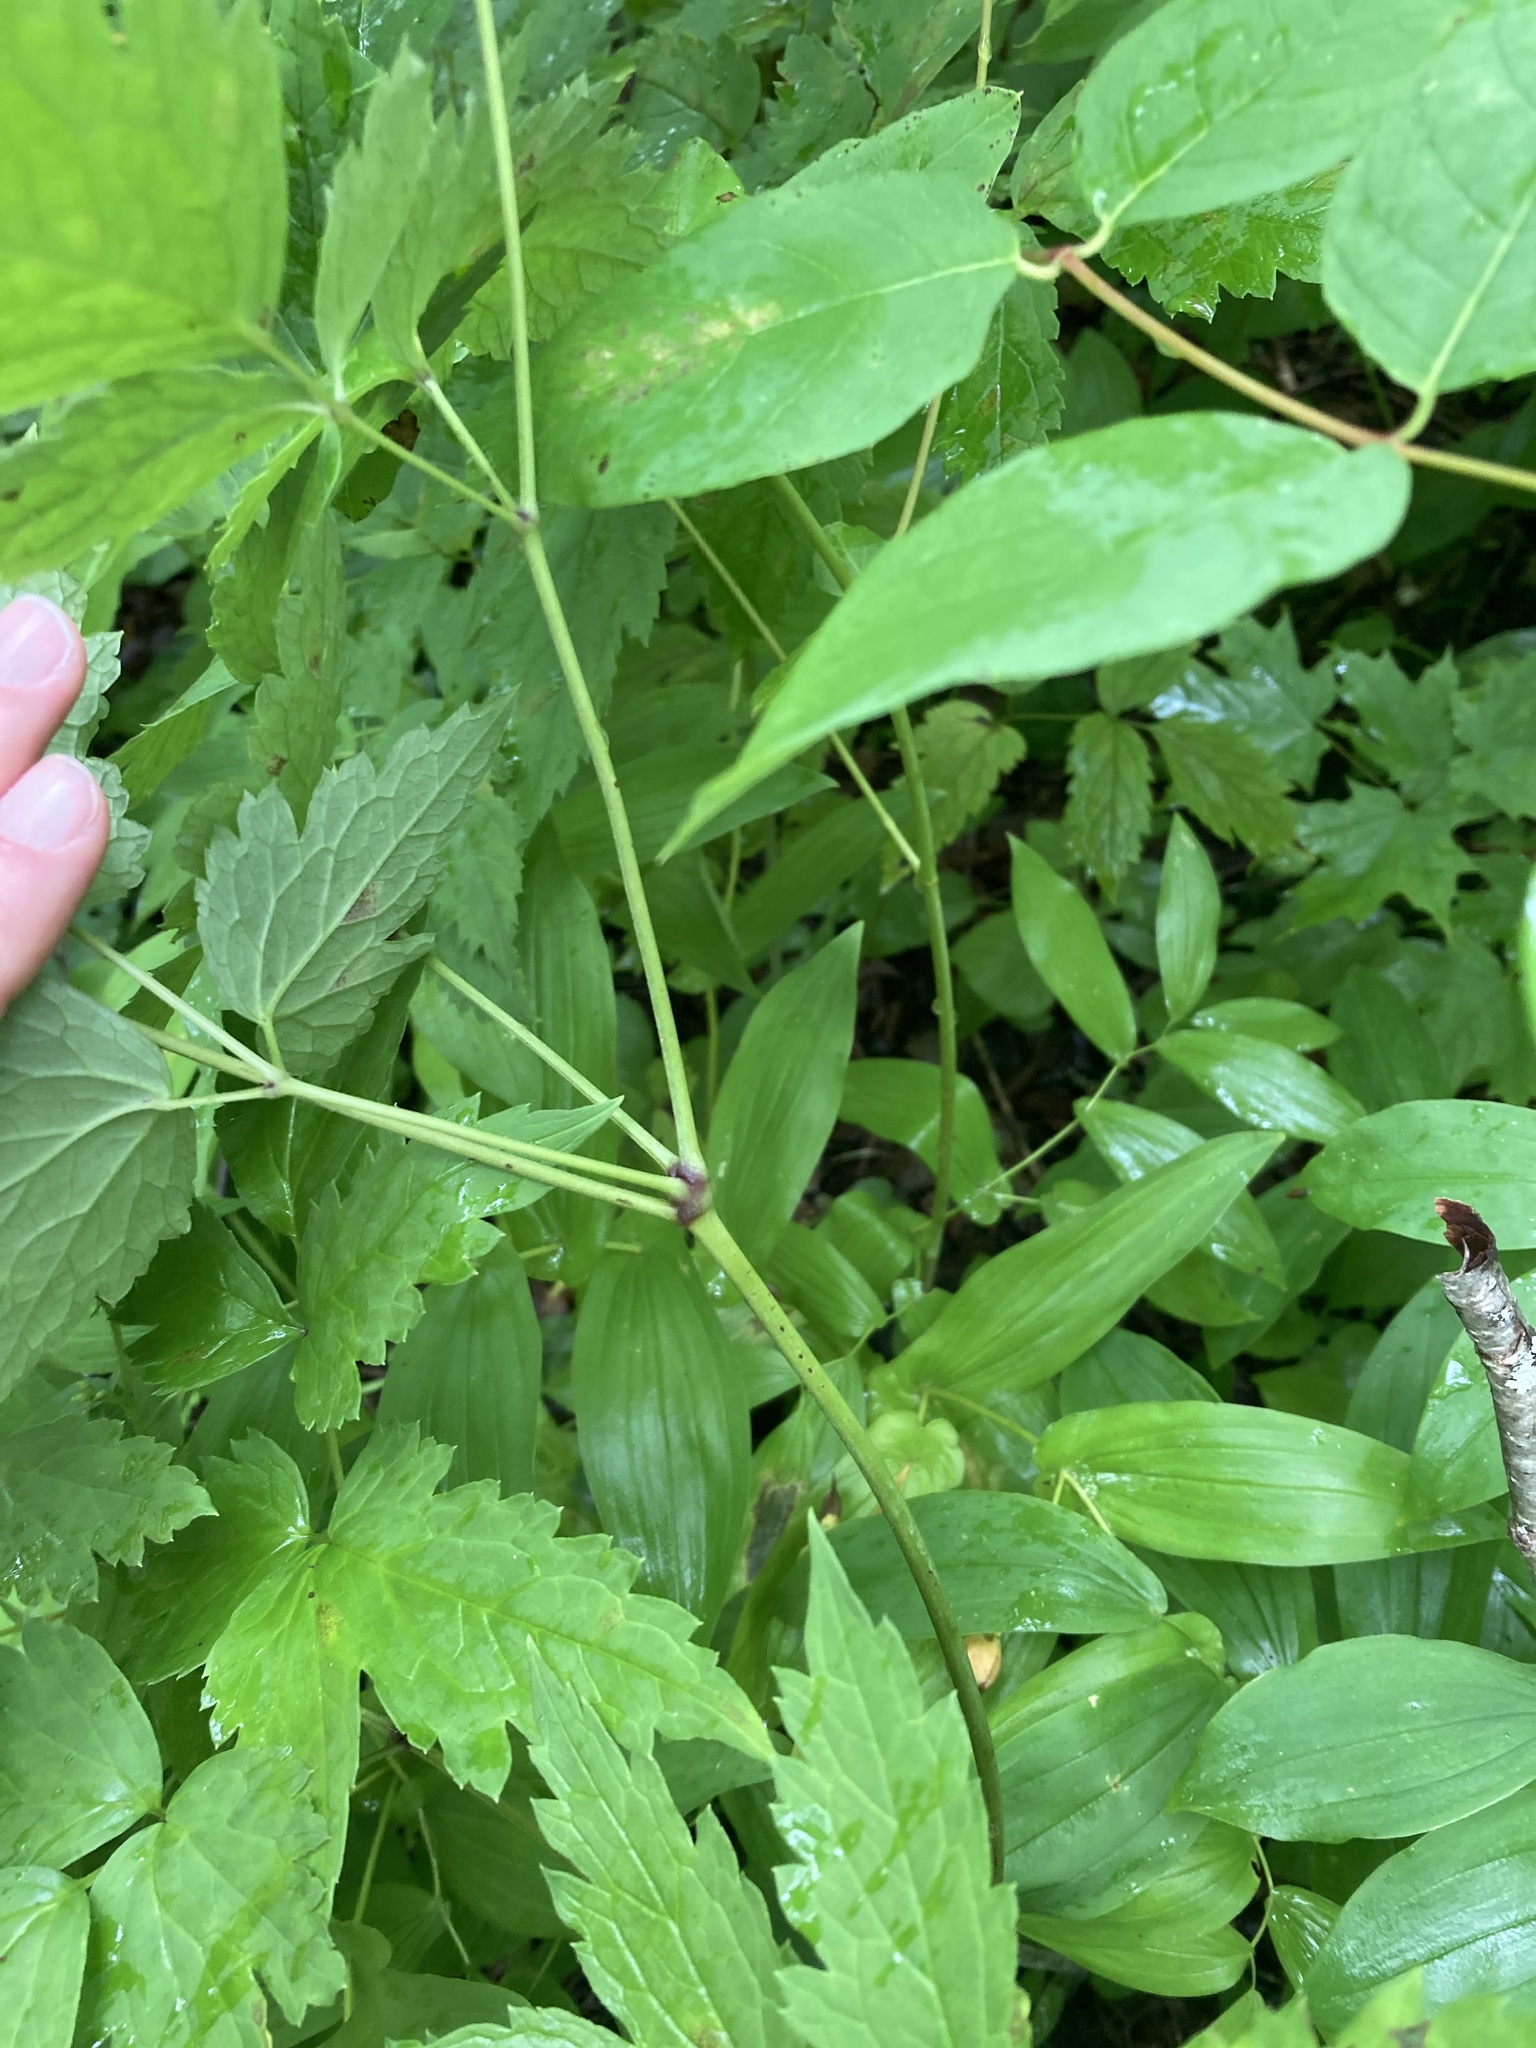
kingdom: Plantae
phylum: Tracheophyta
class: Magnoliopsida
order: Ranunculales
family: Ranunculaceae
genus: Actaea
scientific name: Actaea rubra
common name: Red baneberry
